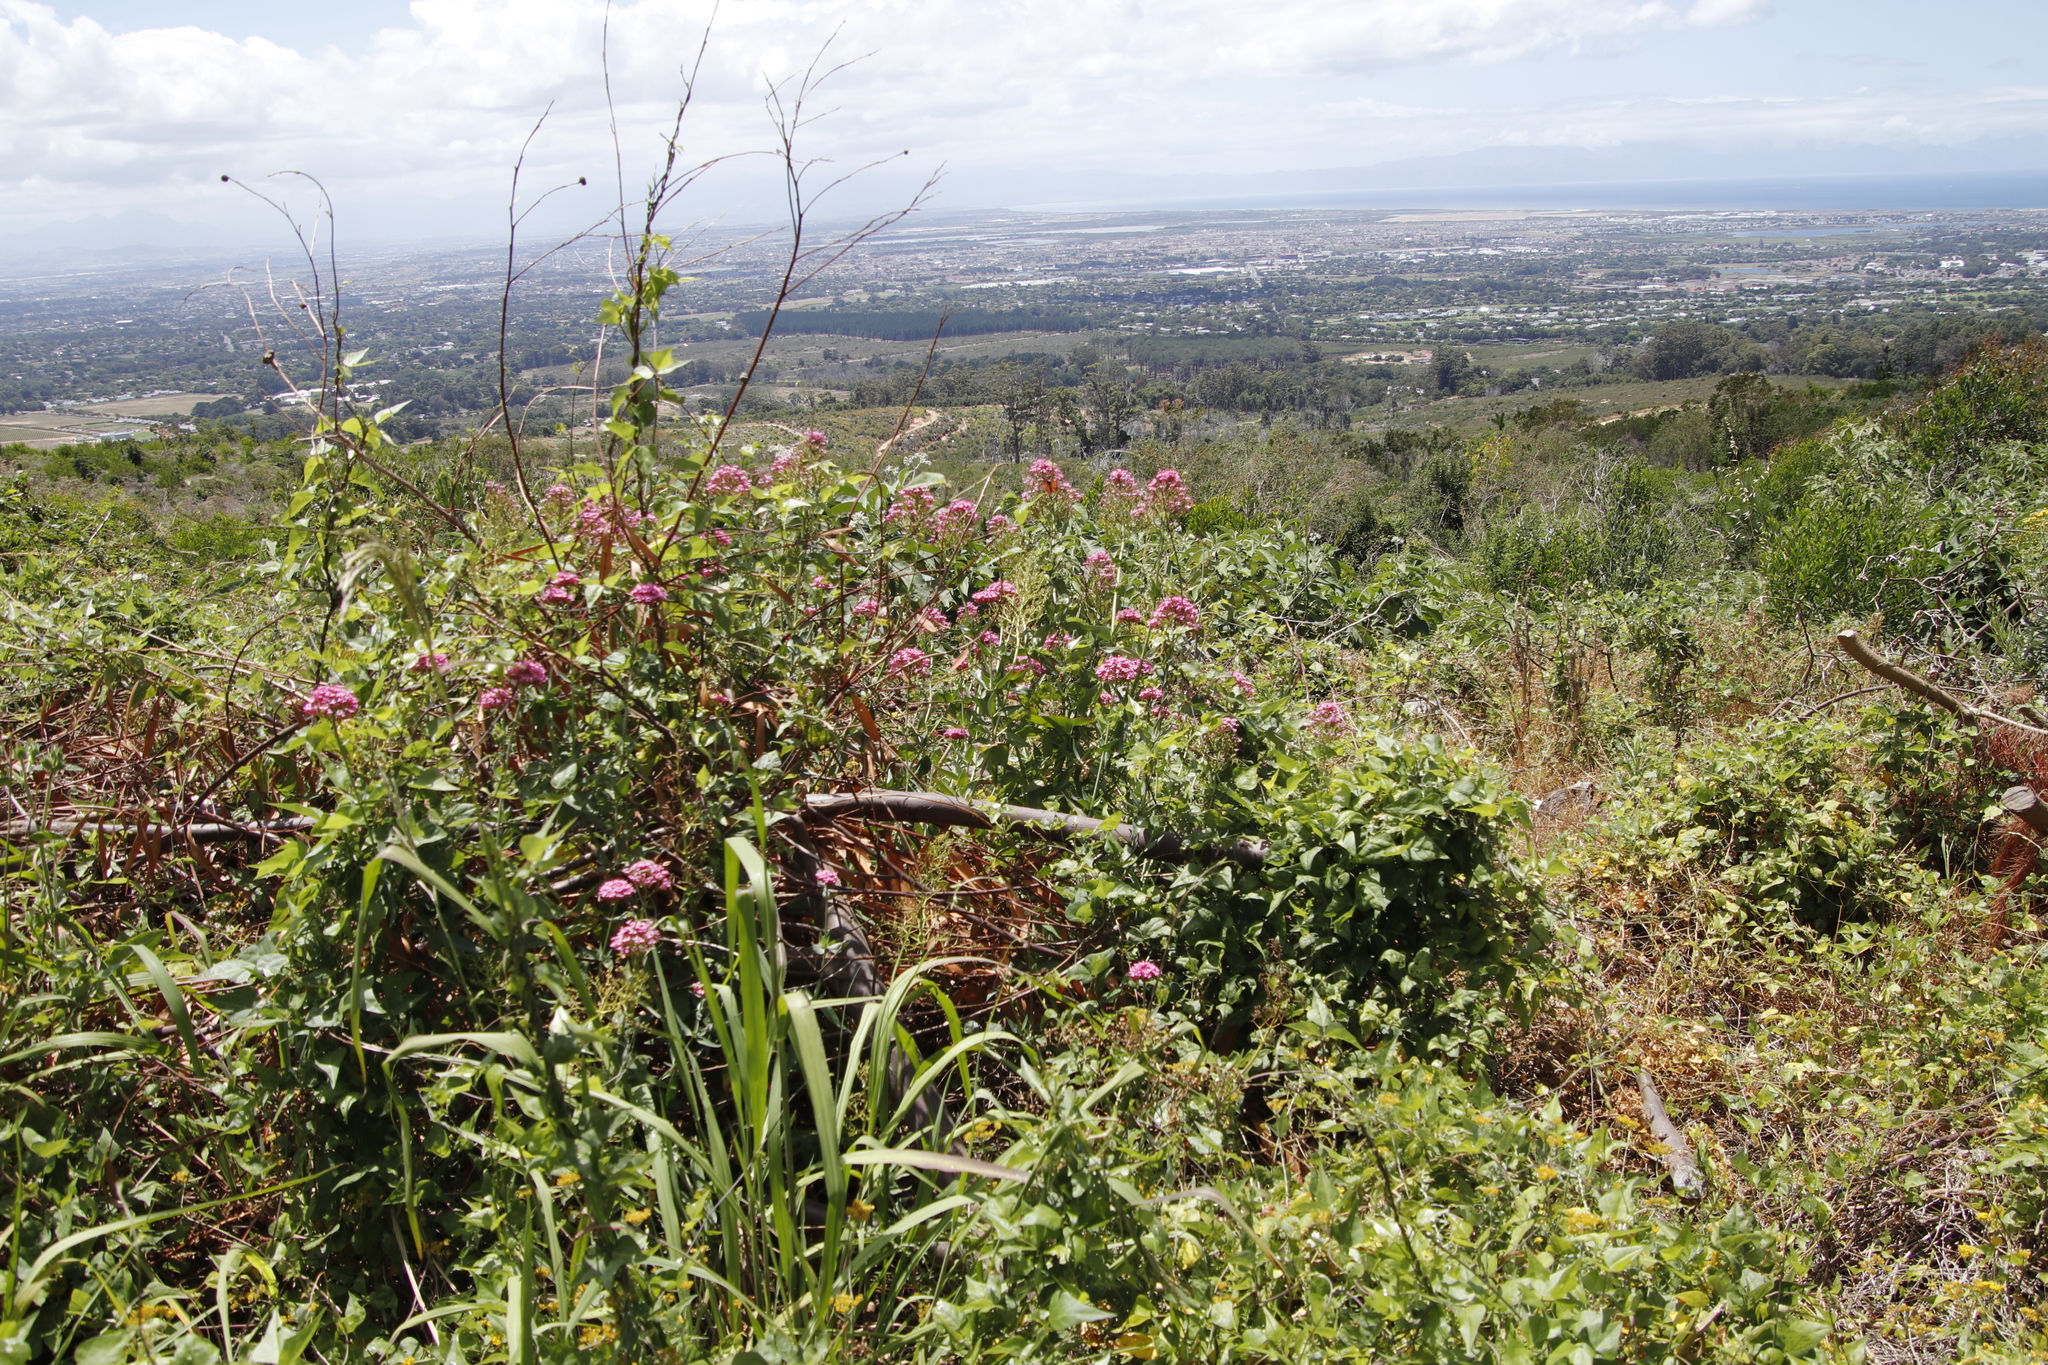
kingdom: Plantae
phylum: Tracheophyta
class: Magnoliopsida
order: Dipsacales
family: Caprifoliaceae
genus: Centranthus
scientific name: Centranthus ruber
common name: Red valerian
